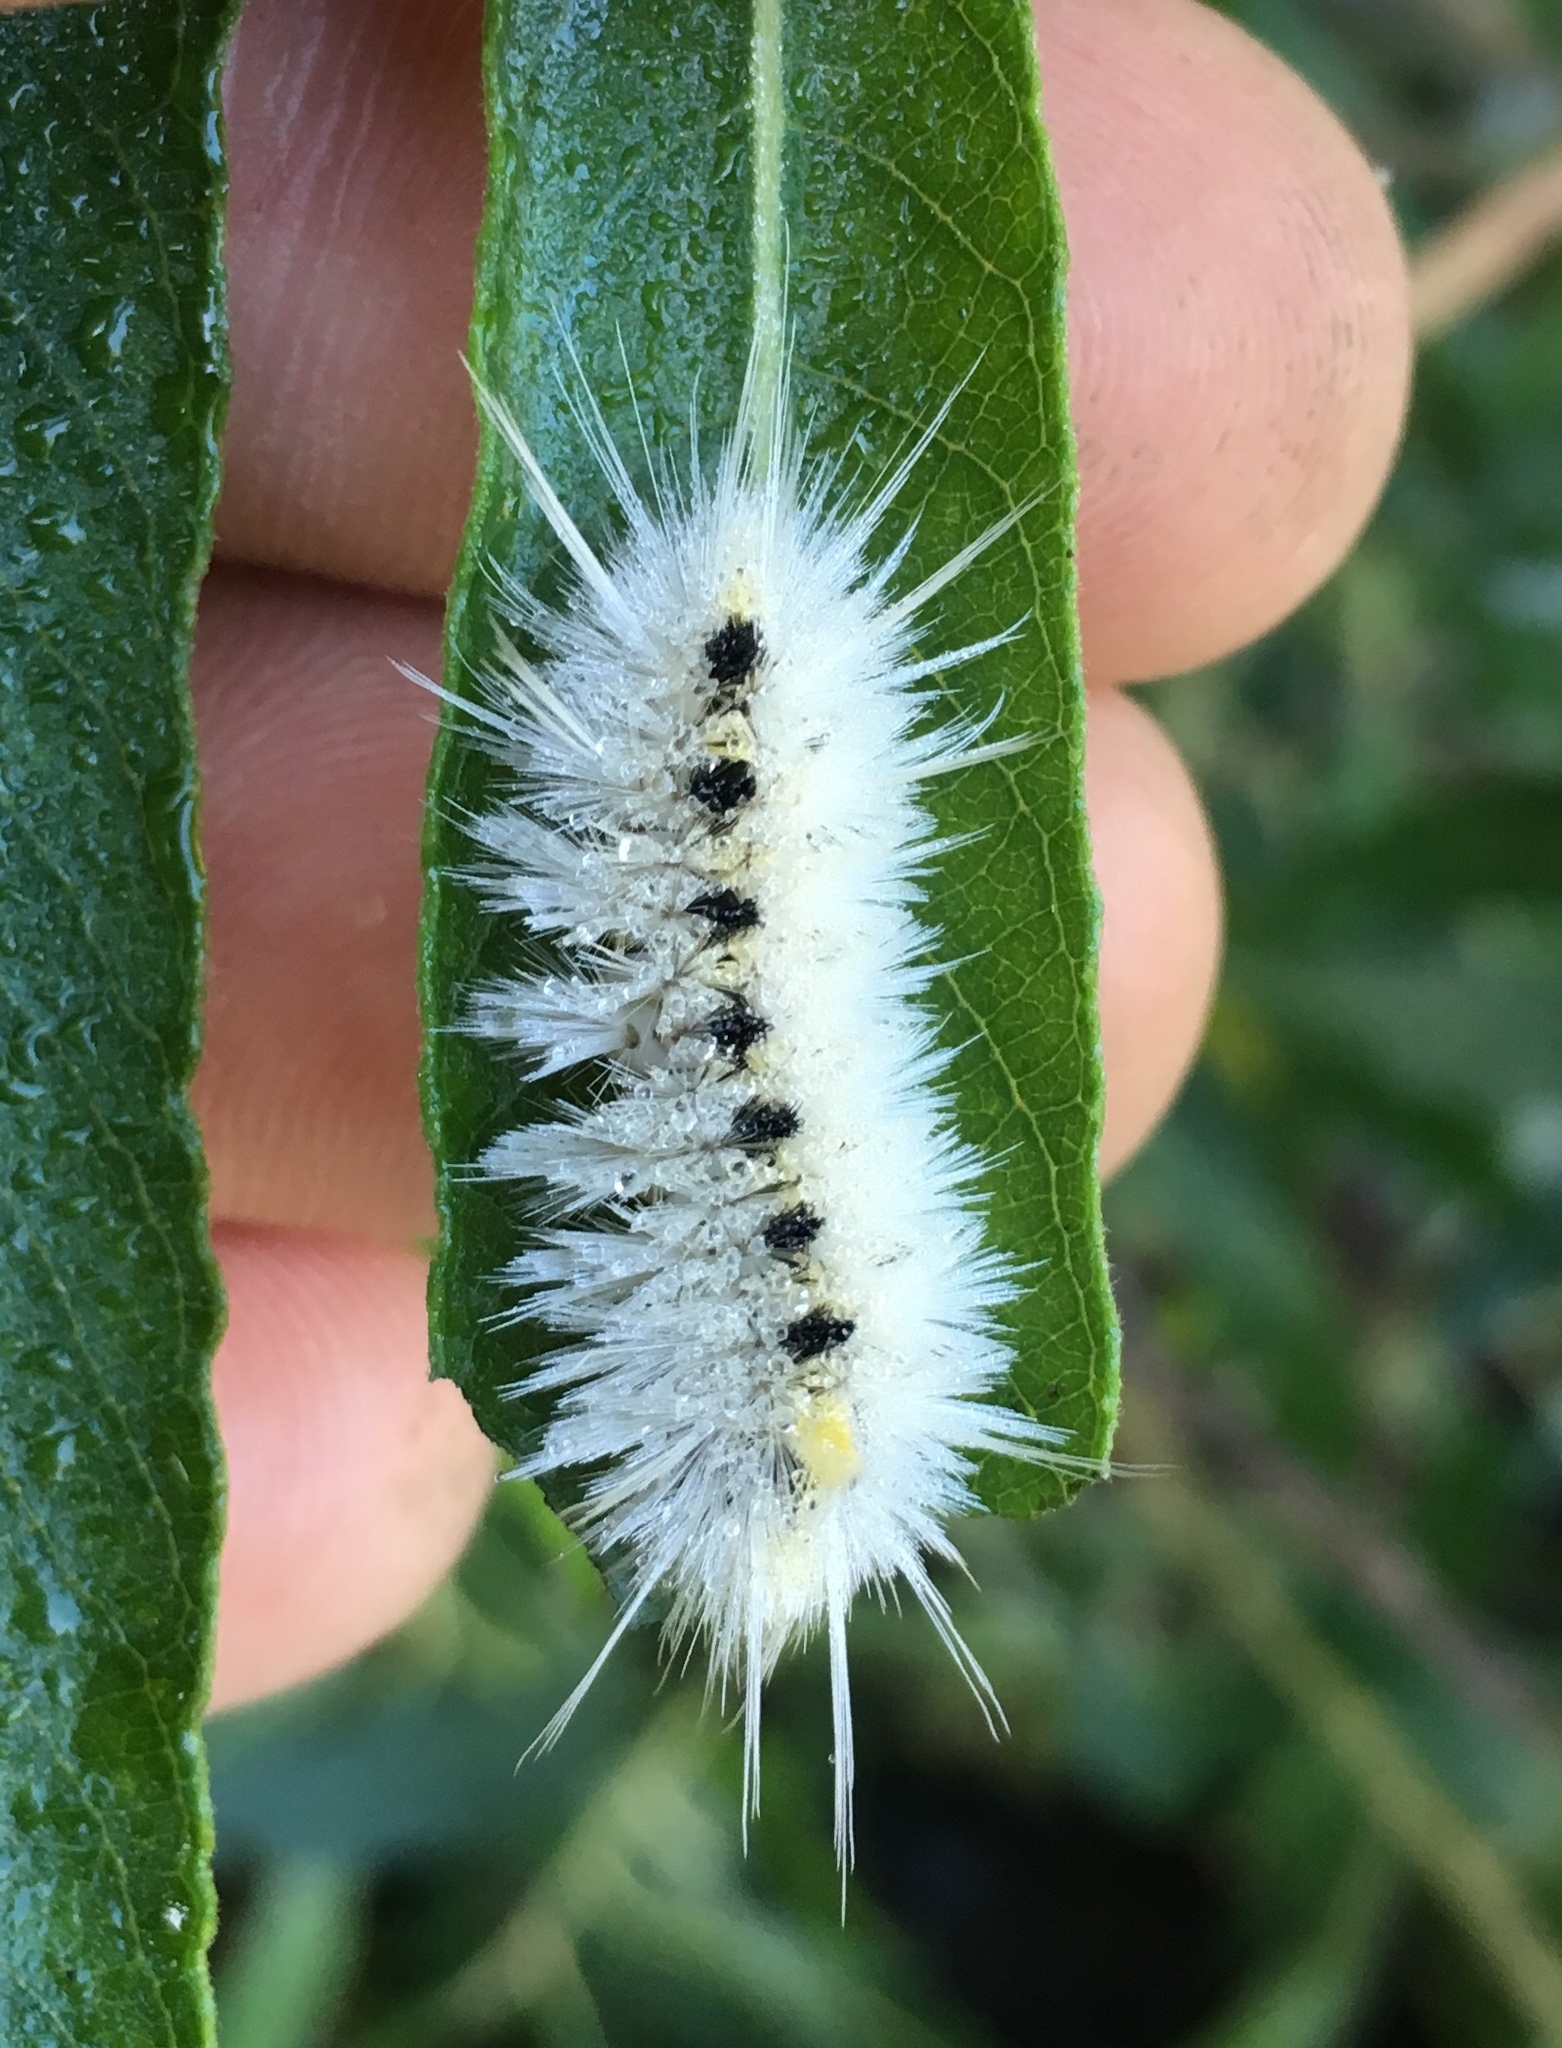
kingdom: Animalia
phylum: Arthropoda
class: Insecta
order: Lepidoptera
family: Erebidae
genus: Lophocampa
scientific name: Lophocampa maculata
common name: Spotted tussock moth
